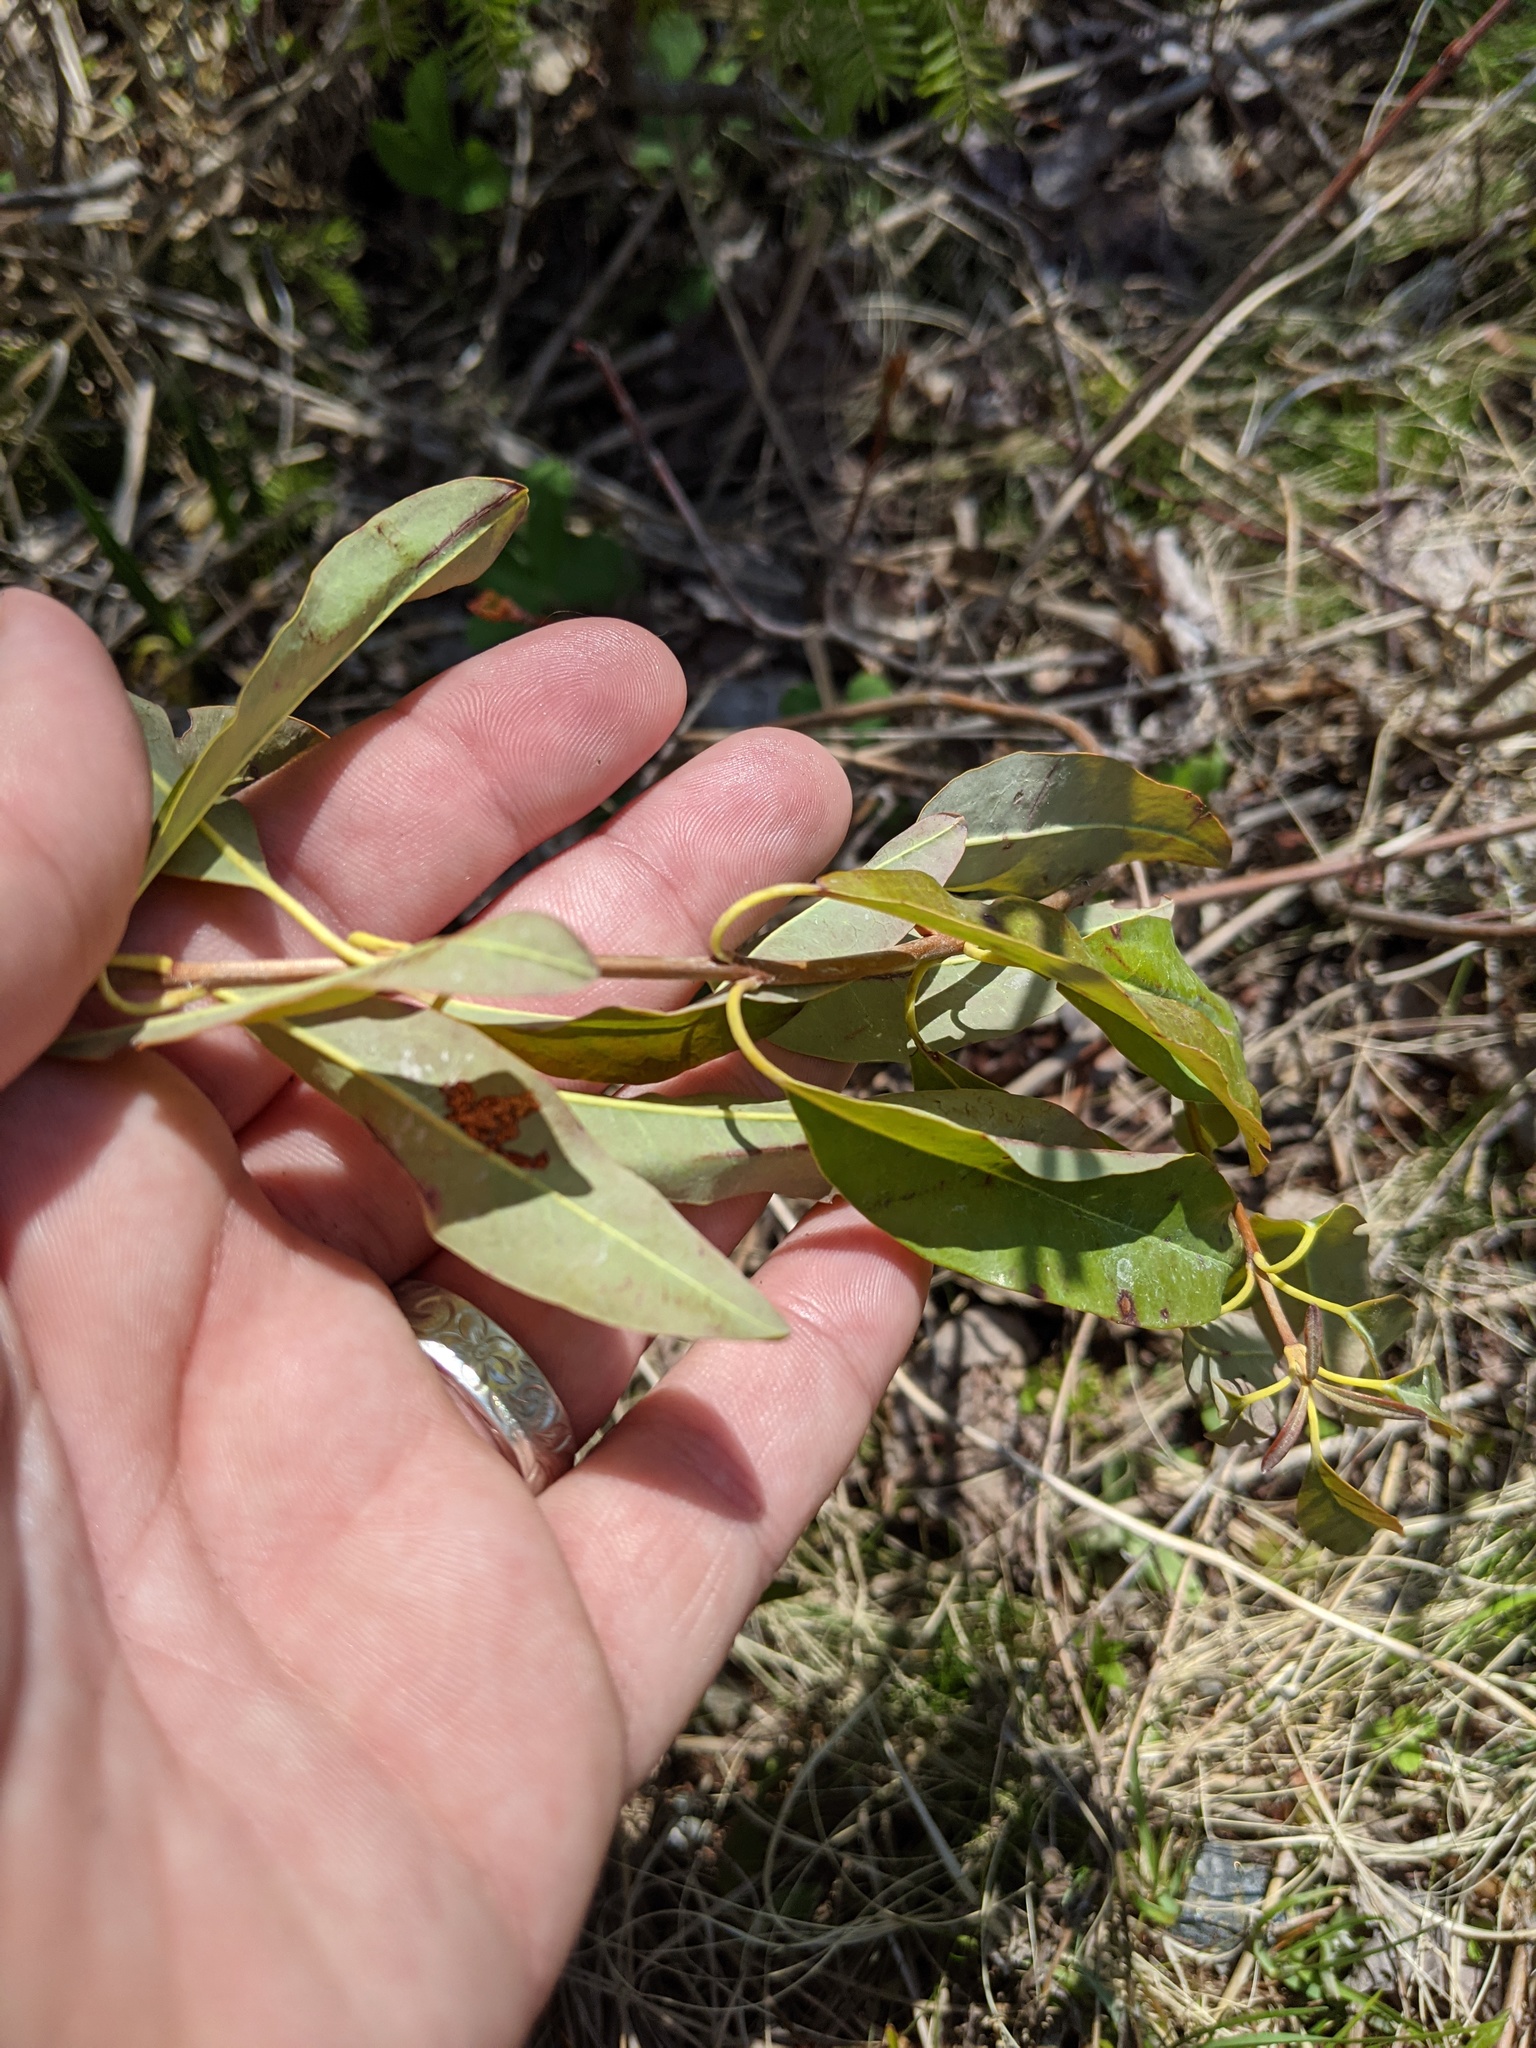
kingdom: Plantae
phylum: Tracheophyta
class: Magnoliopsida
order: Ericales
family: Ericaceae
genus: Kalmia
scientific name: Kalmia angustifolia
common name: Sheep-laurel
